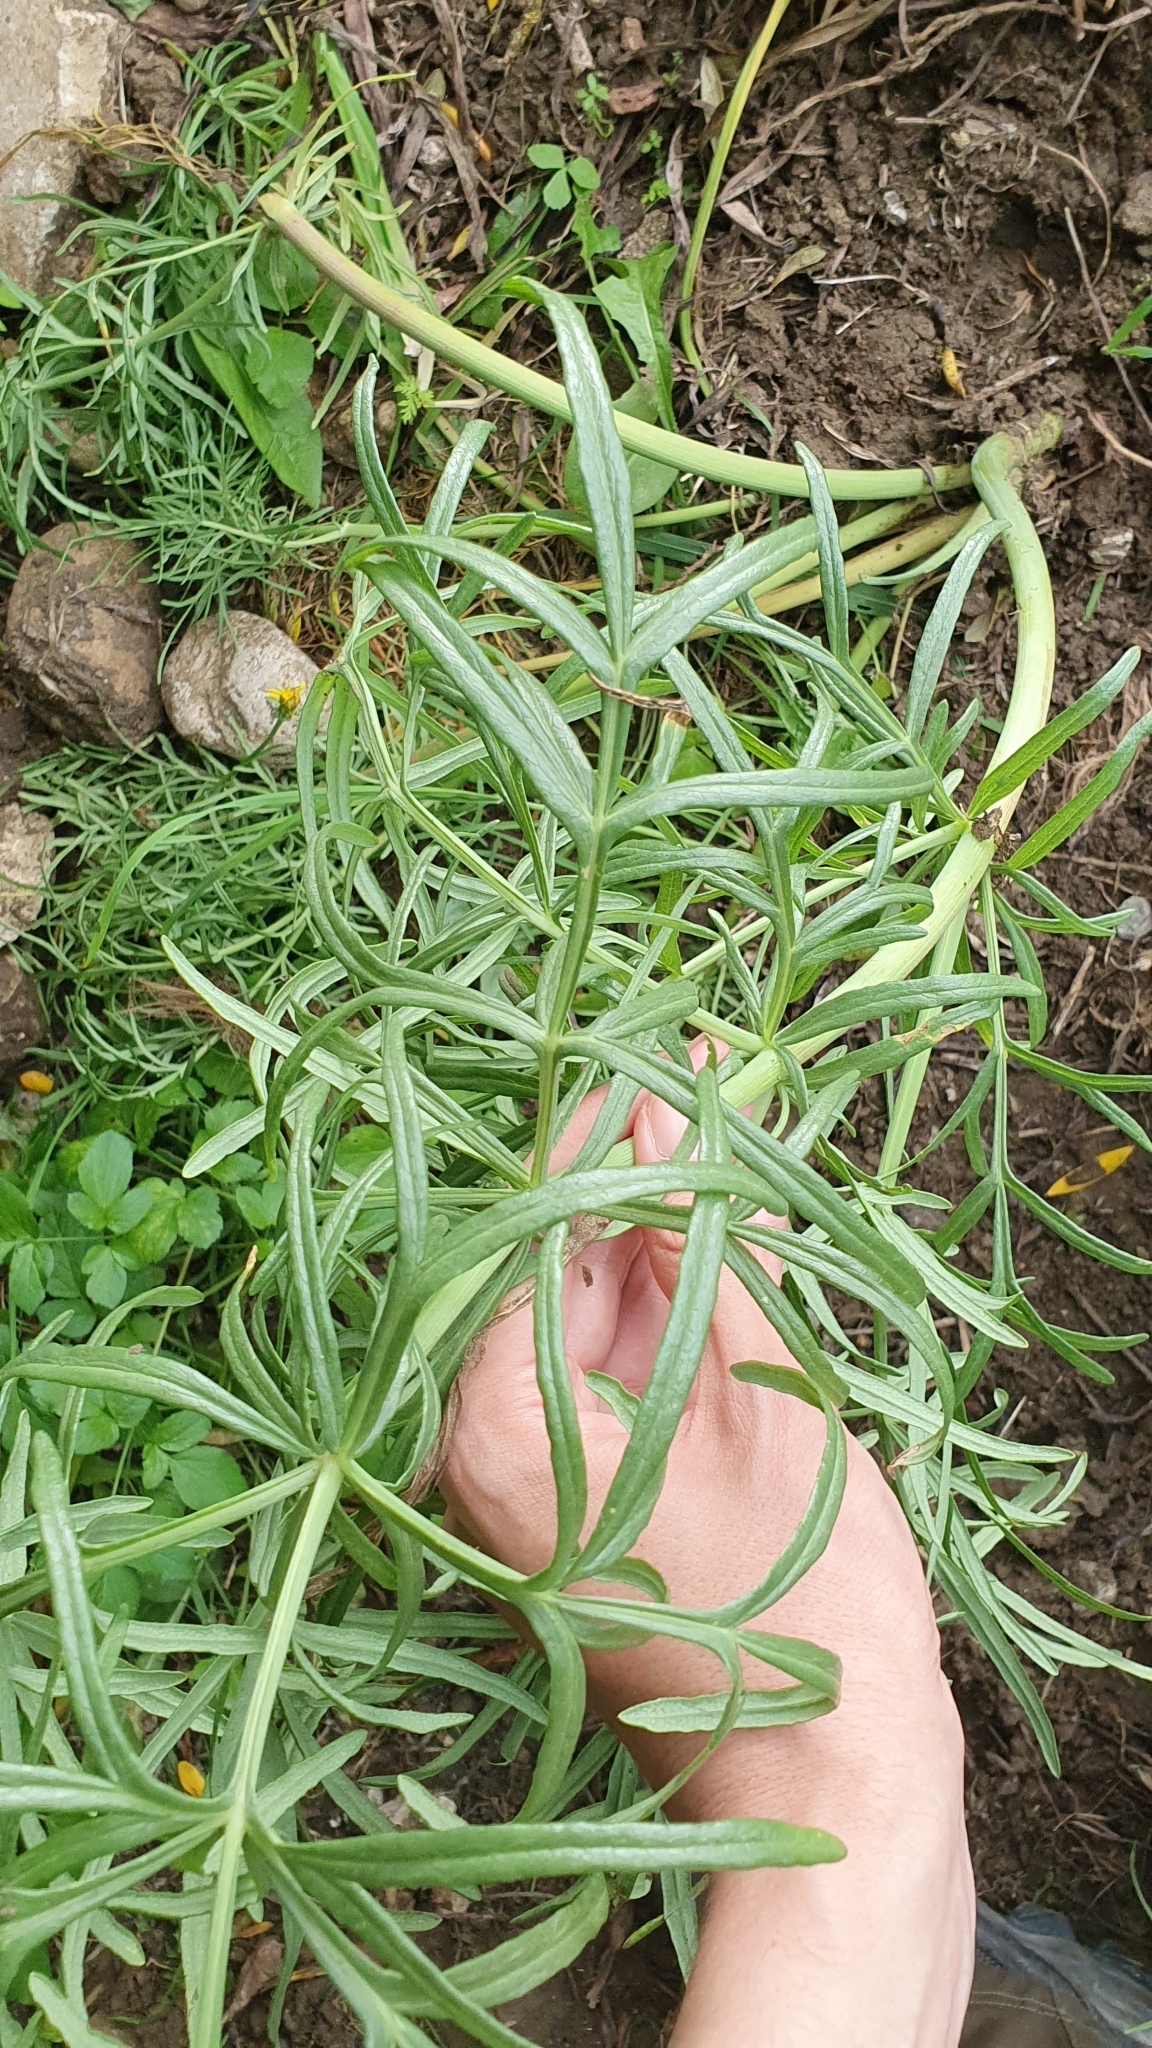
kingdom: Plantae
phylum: Tracheophyta
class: Magnoliopsida
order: Apiales
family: Apiaceae
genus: Thapsia
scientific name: Thapsia garganica
